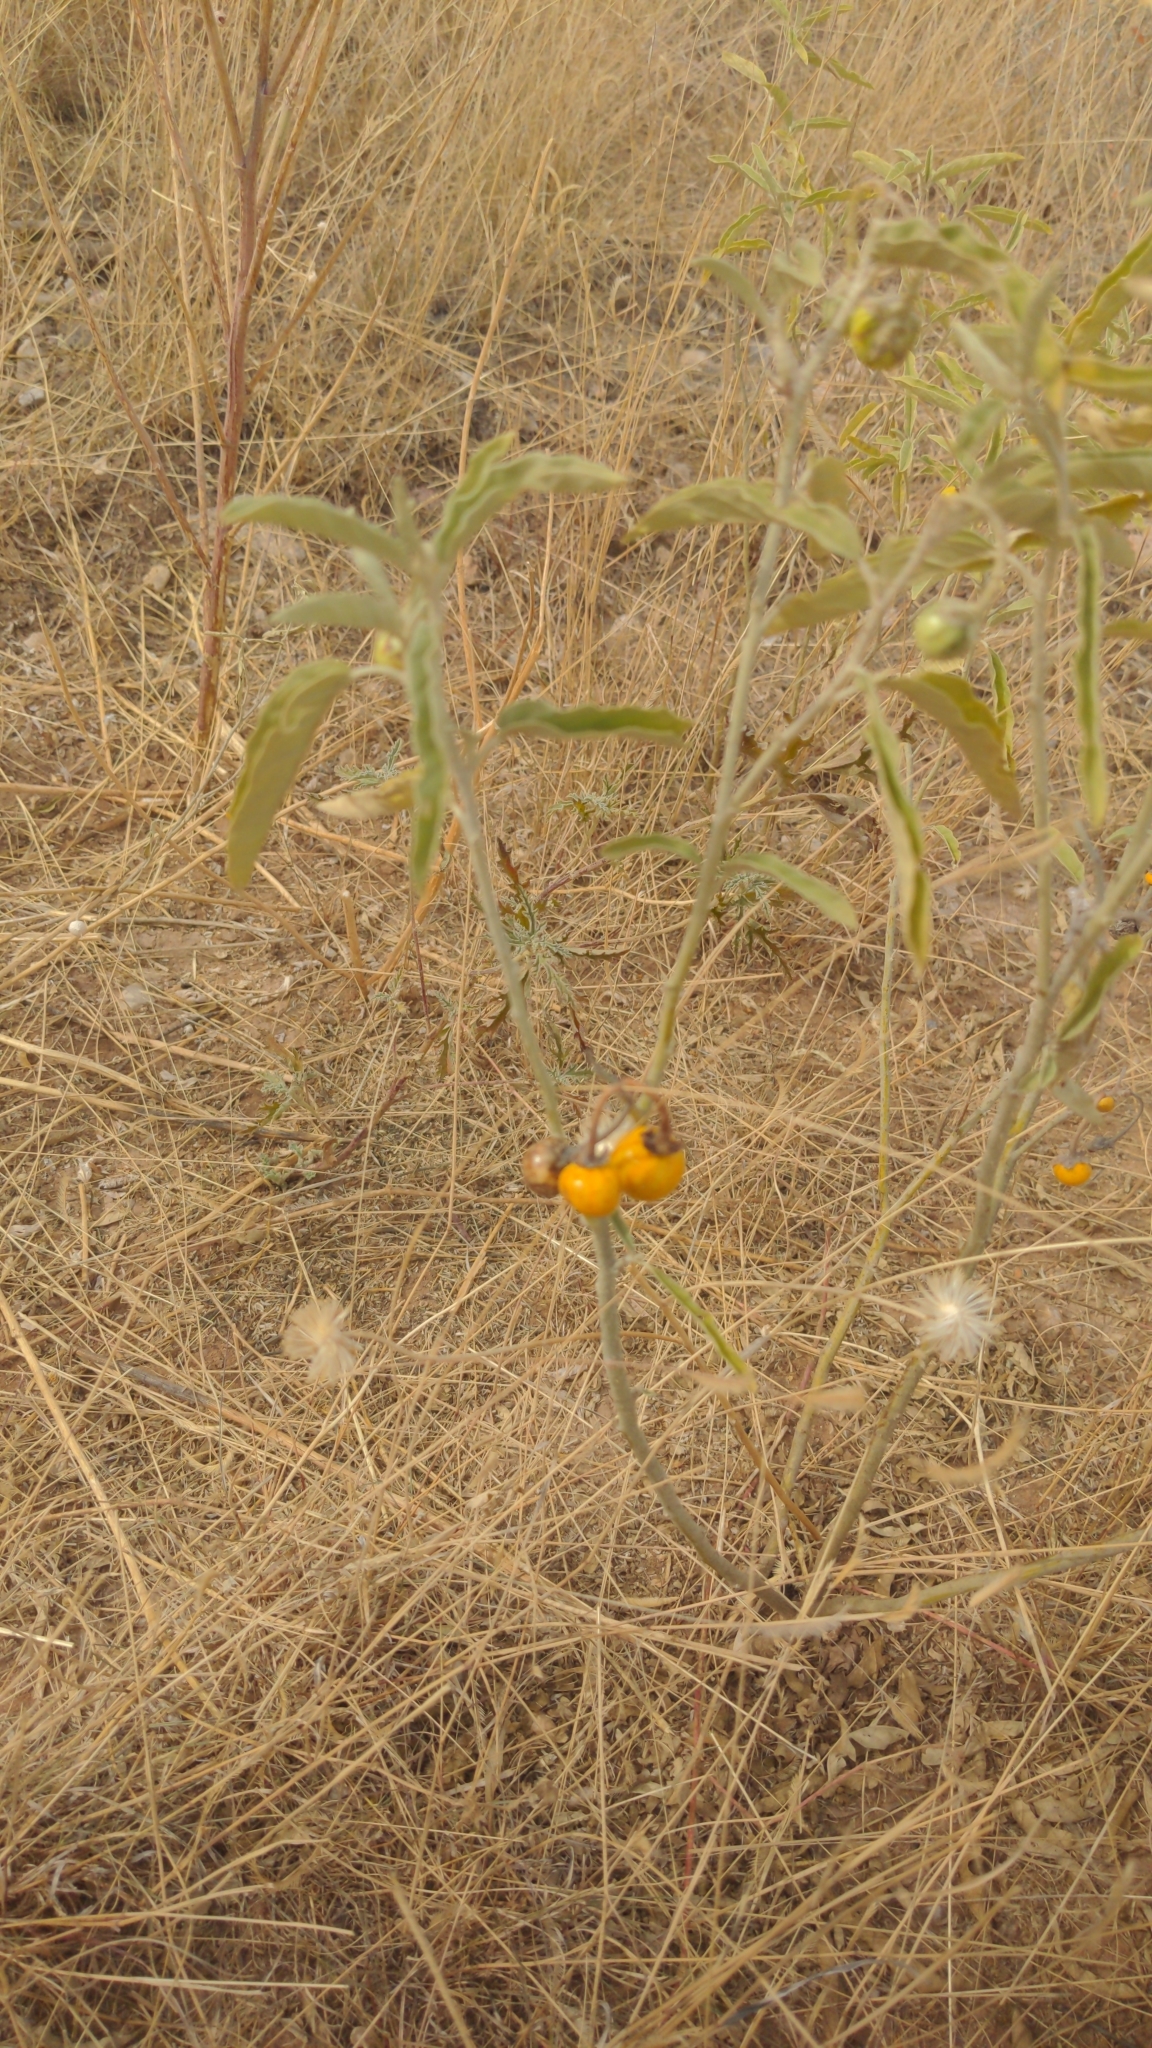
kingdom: Plantae
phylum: Tracheophyta
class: Magnoliopsida
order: Solanales
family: Solanaceae
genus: Solanum
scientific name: Solanum elaeagnifolium
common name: Silverleaf nightshade
